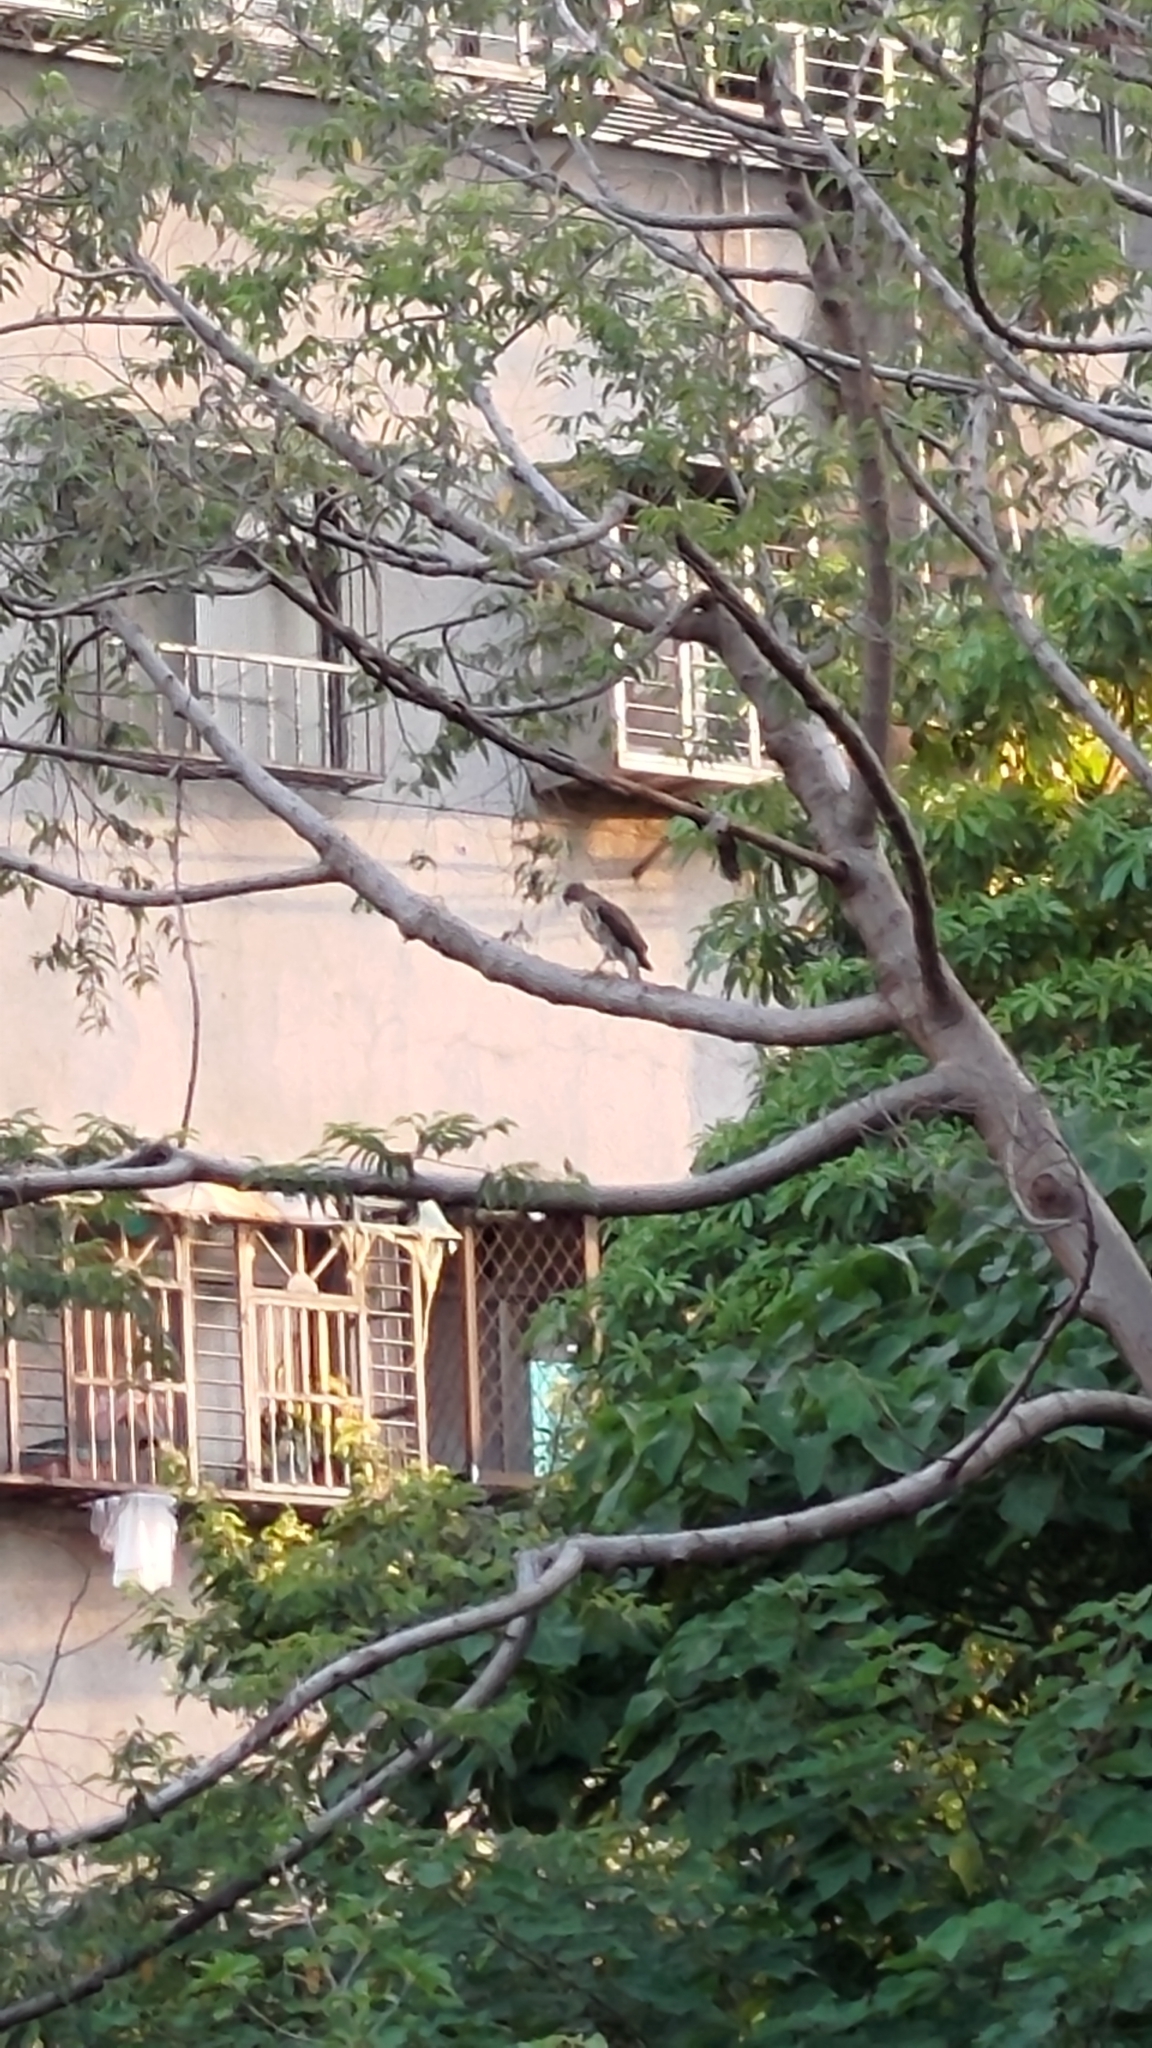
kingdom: Animalia
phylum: Chordata
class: Aves
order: Accipitriformes
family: Accipitridae
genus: Accipiter
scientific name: Accipiter trivirgatus
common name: Crested goshawk
